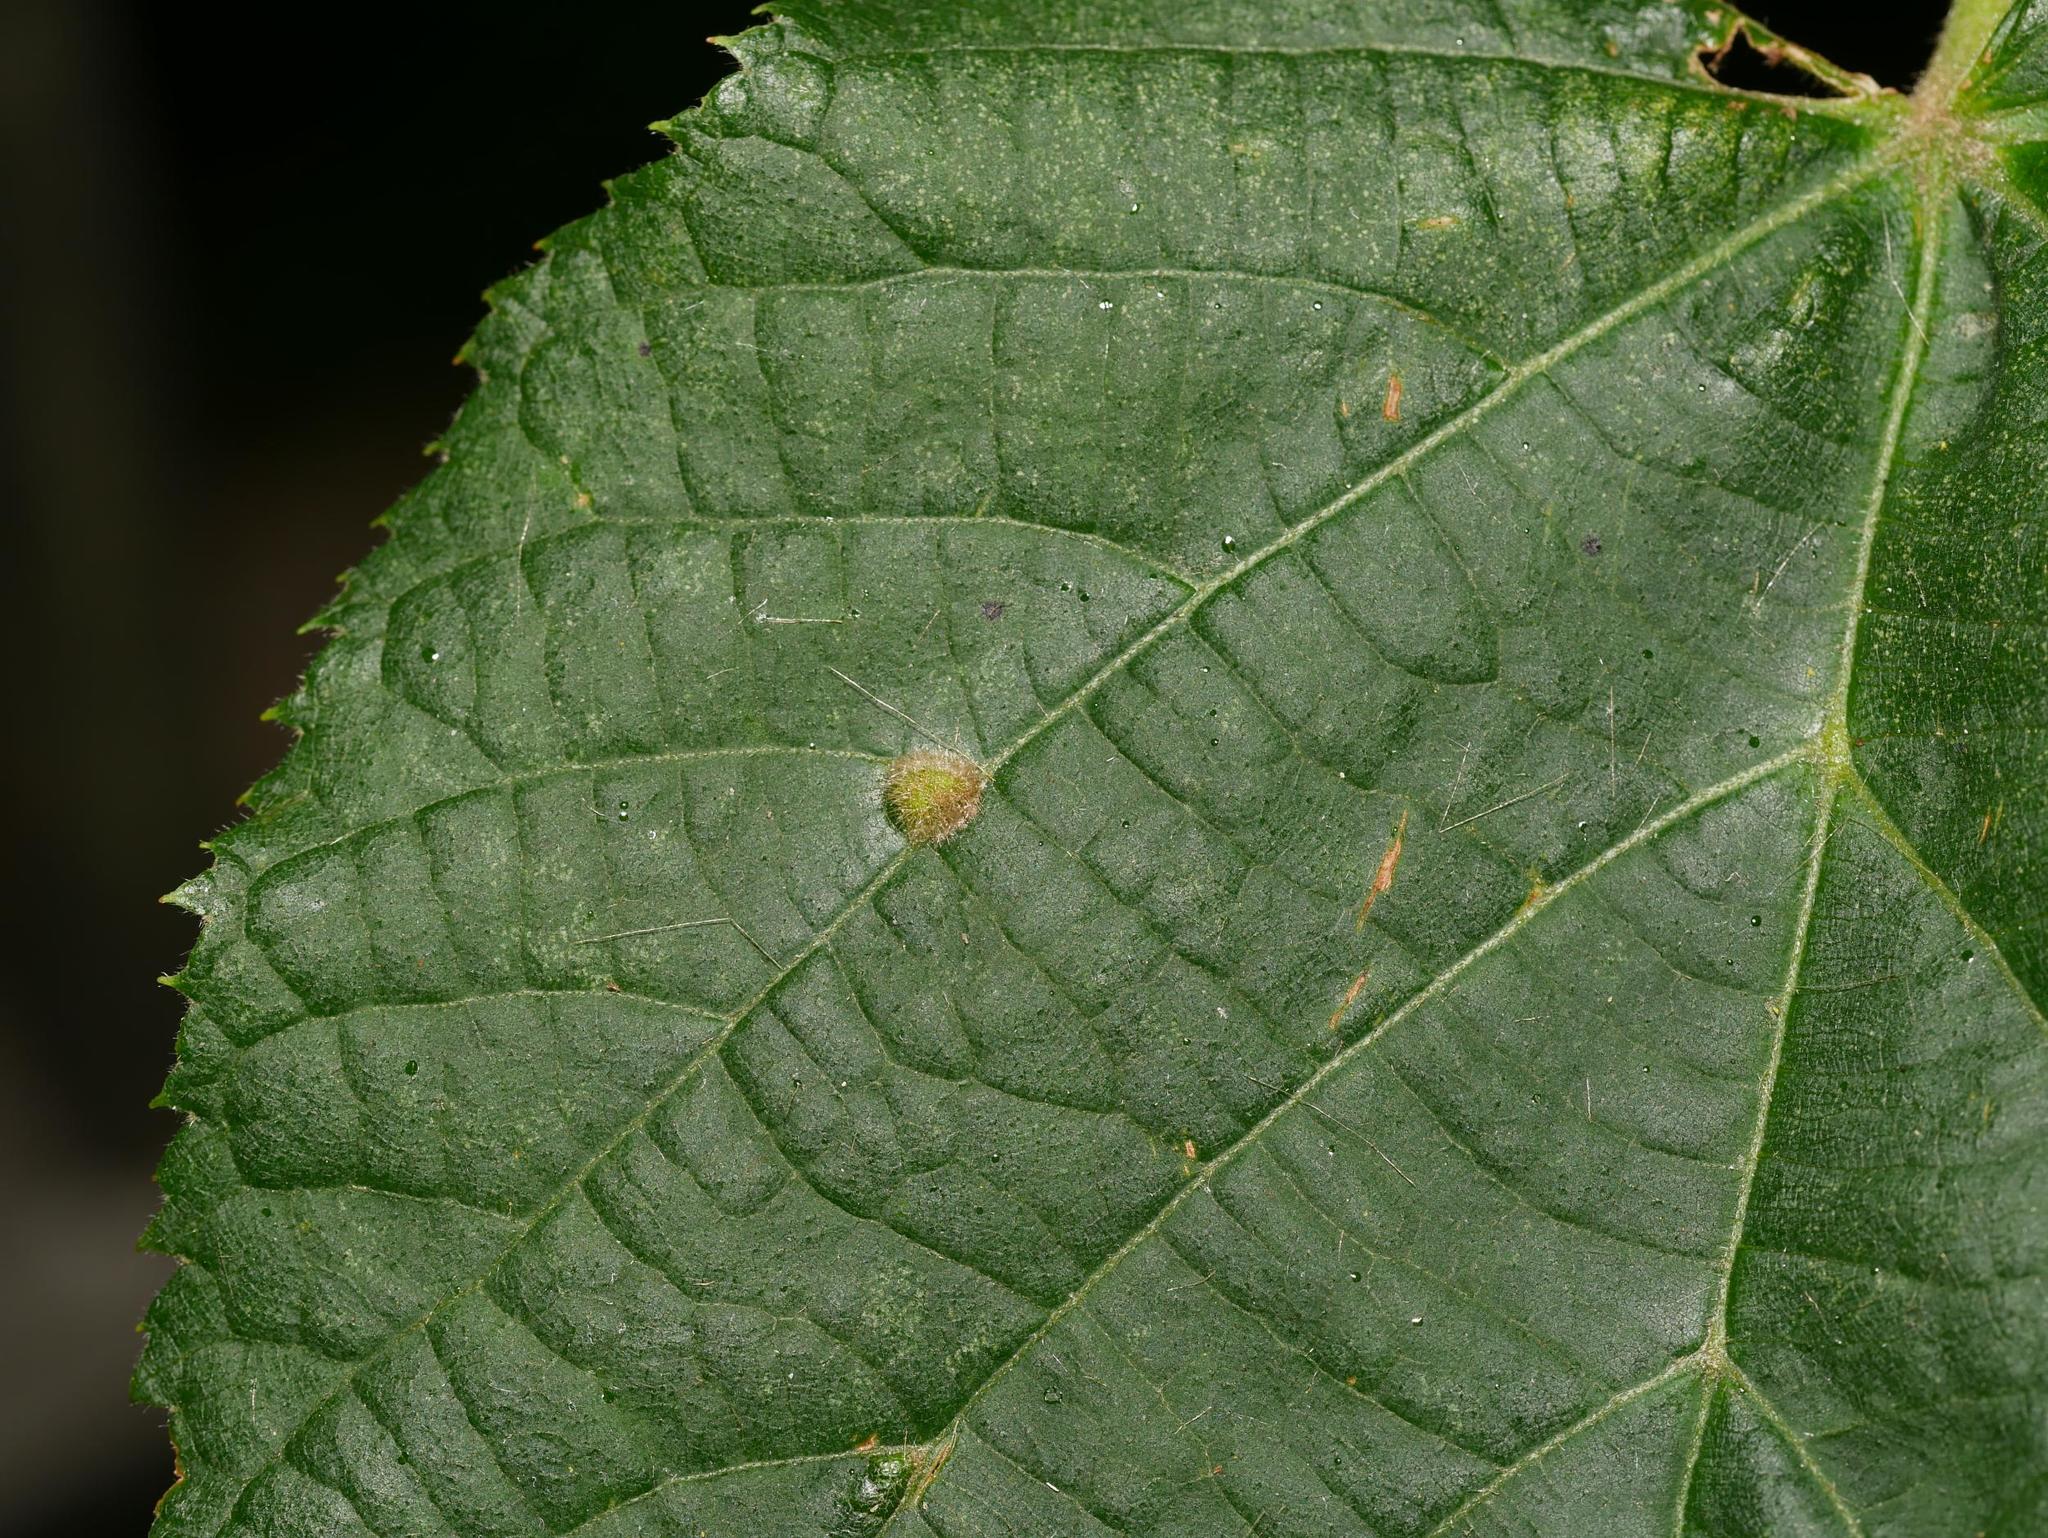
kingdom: Animalia
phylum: Arthropoda
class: Arachnida
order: Trombidiformes
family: Eriophyidae
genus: Eriophyes
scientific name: Eriophyes exilis
